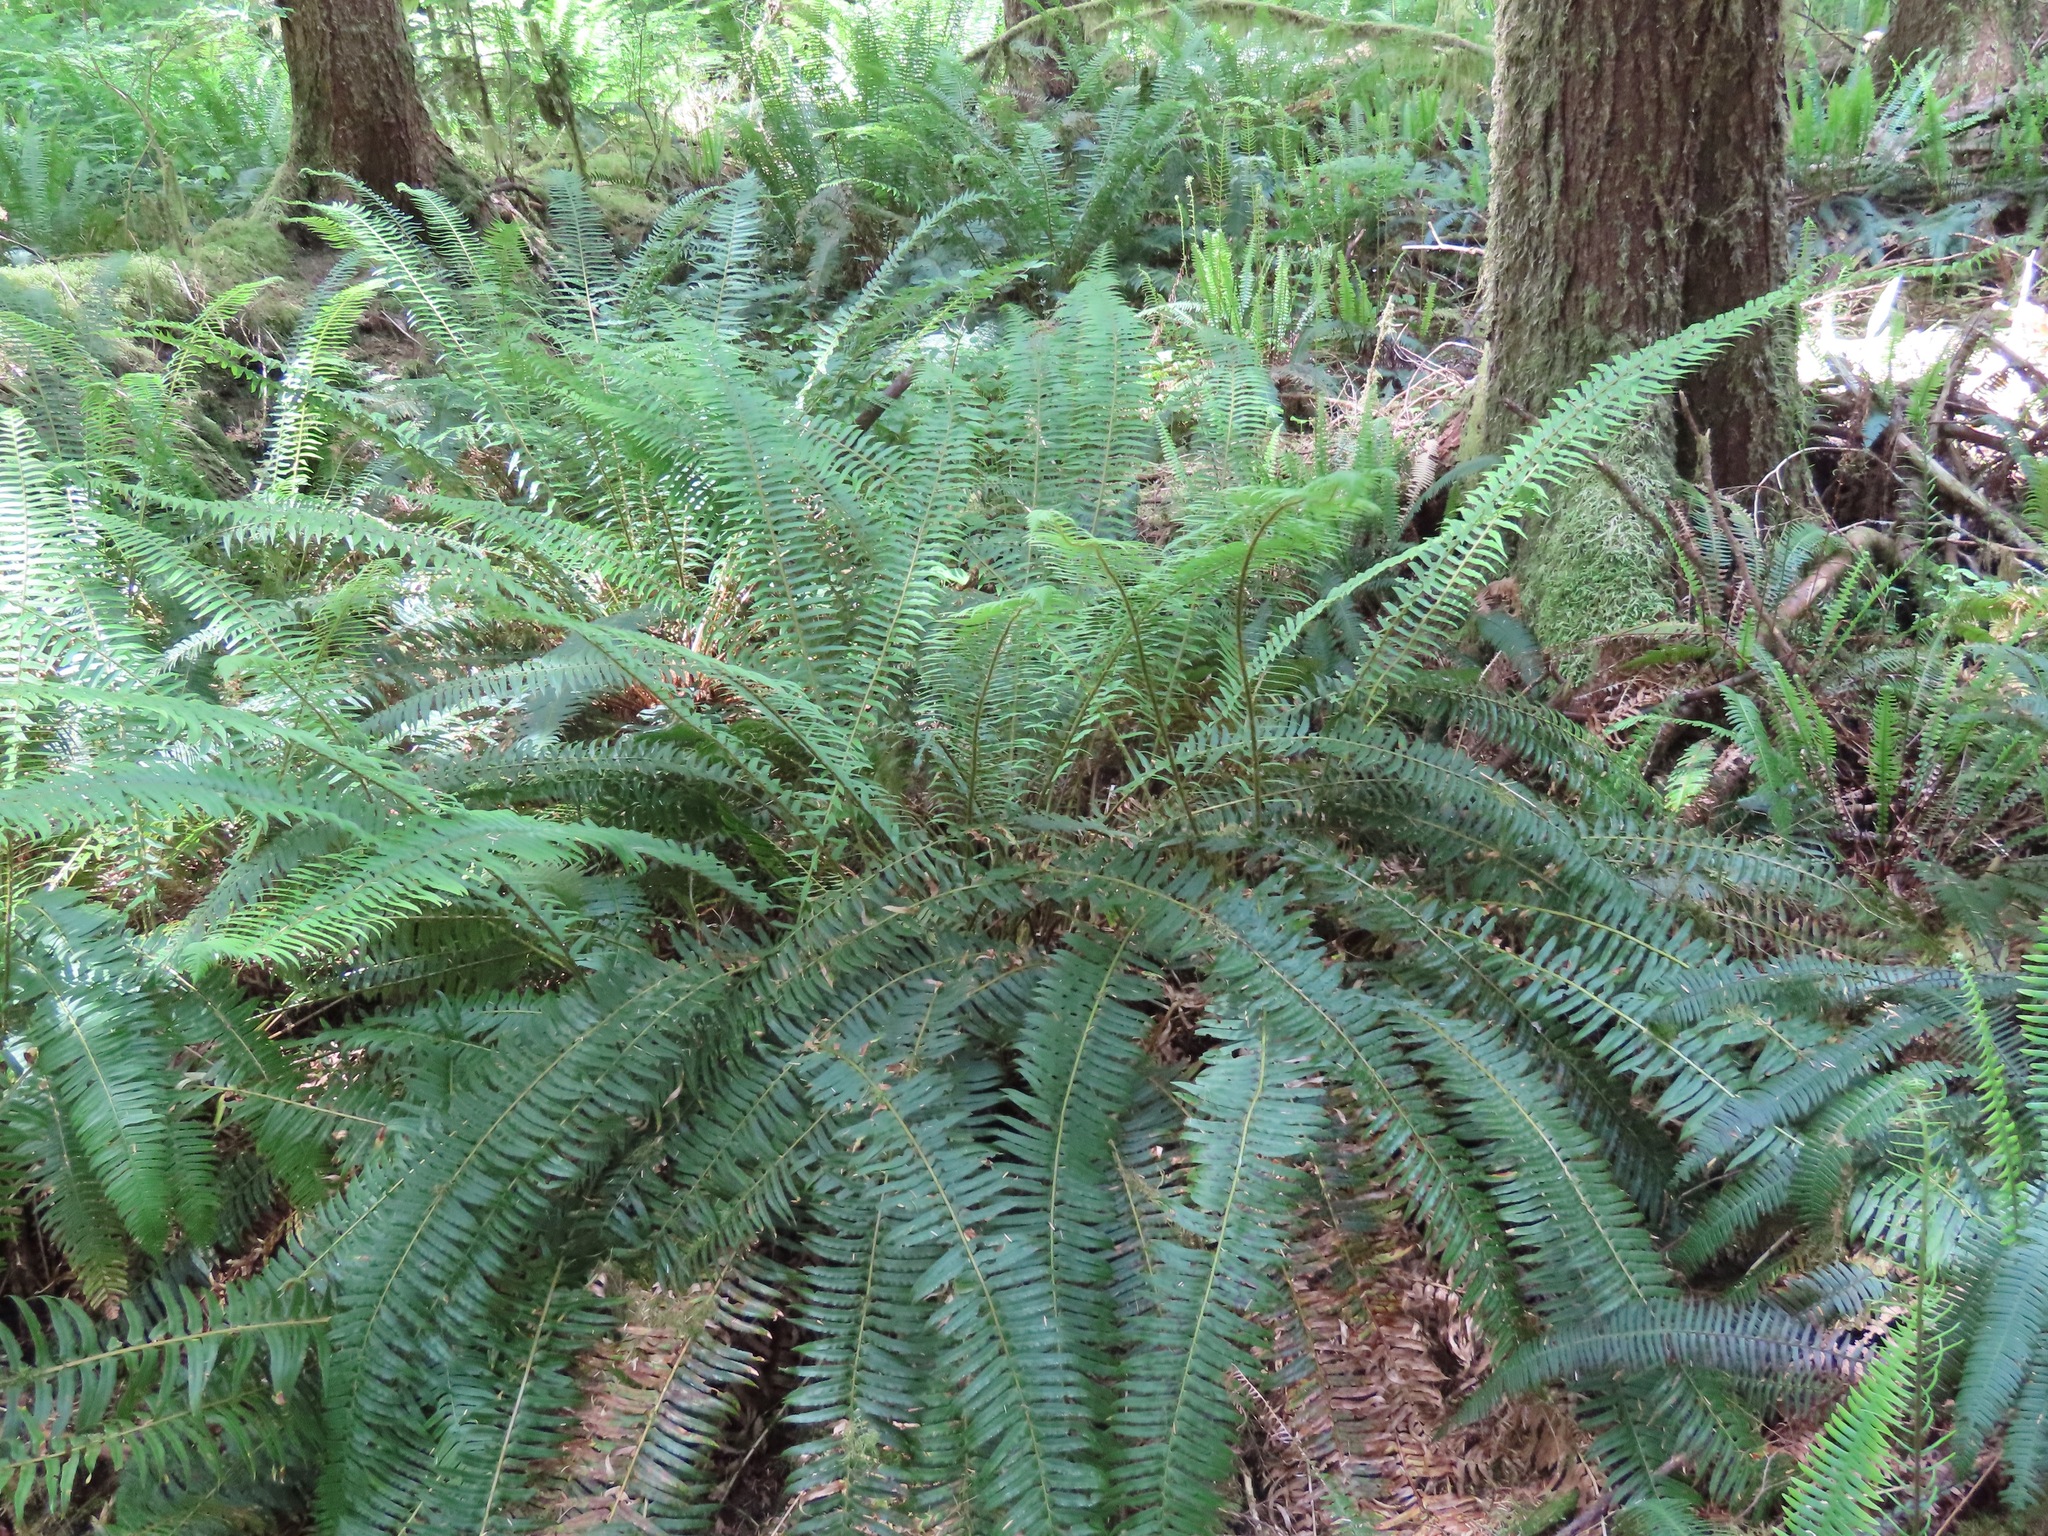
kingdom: Plantae
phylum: Tracheophyta
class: Polypodiopsida
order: Polypodiales
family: Dryopteridaceae
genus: Polystichum
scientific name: Polystichum munitum
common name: Western sword-fern
